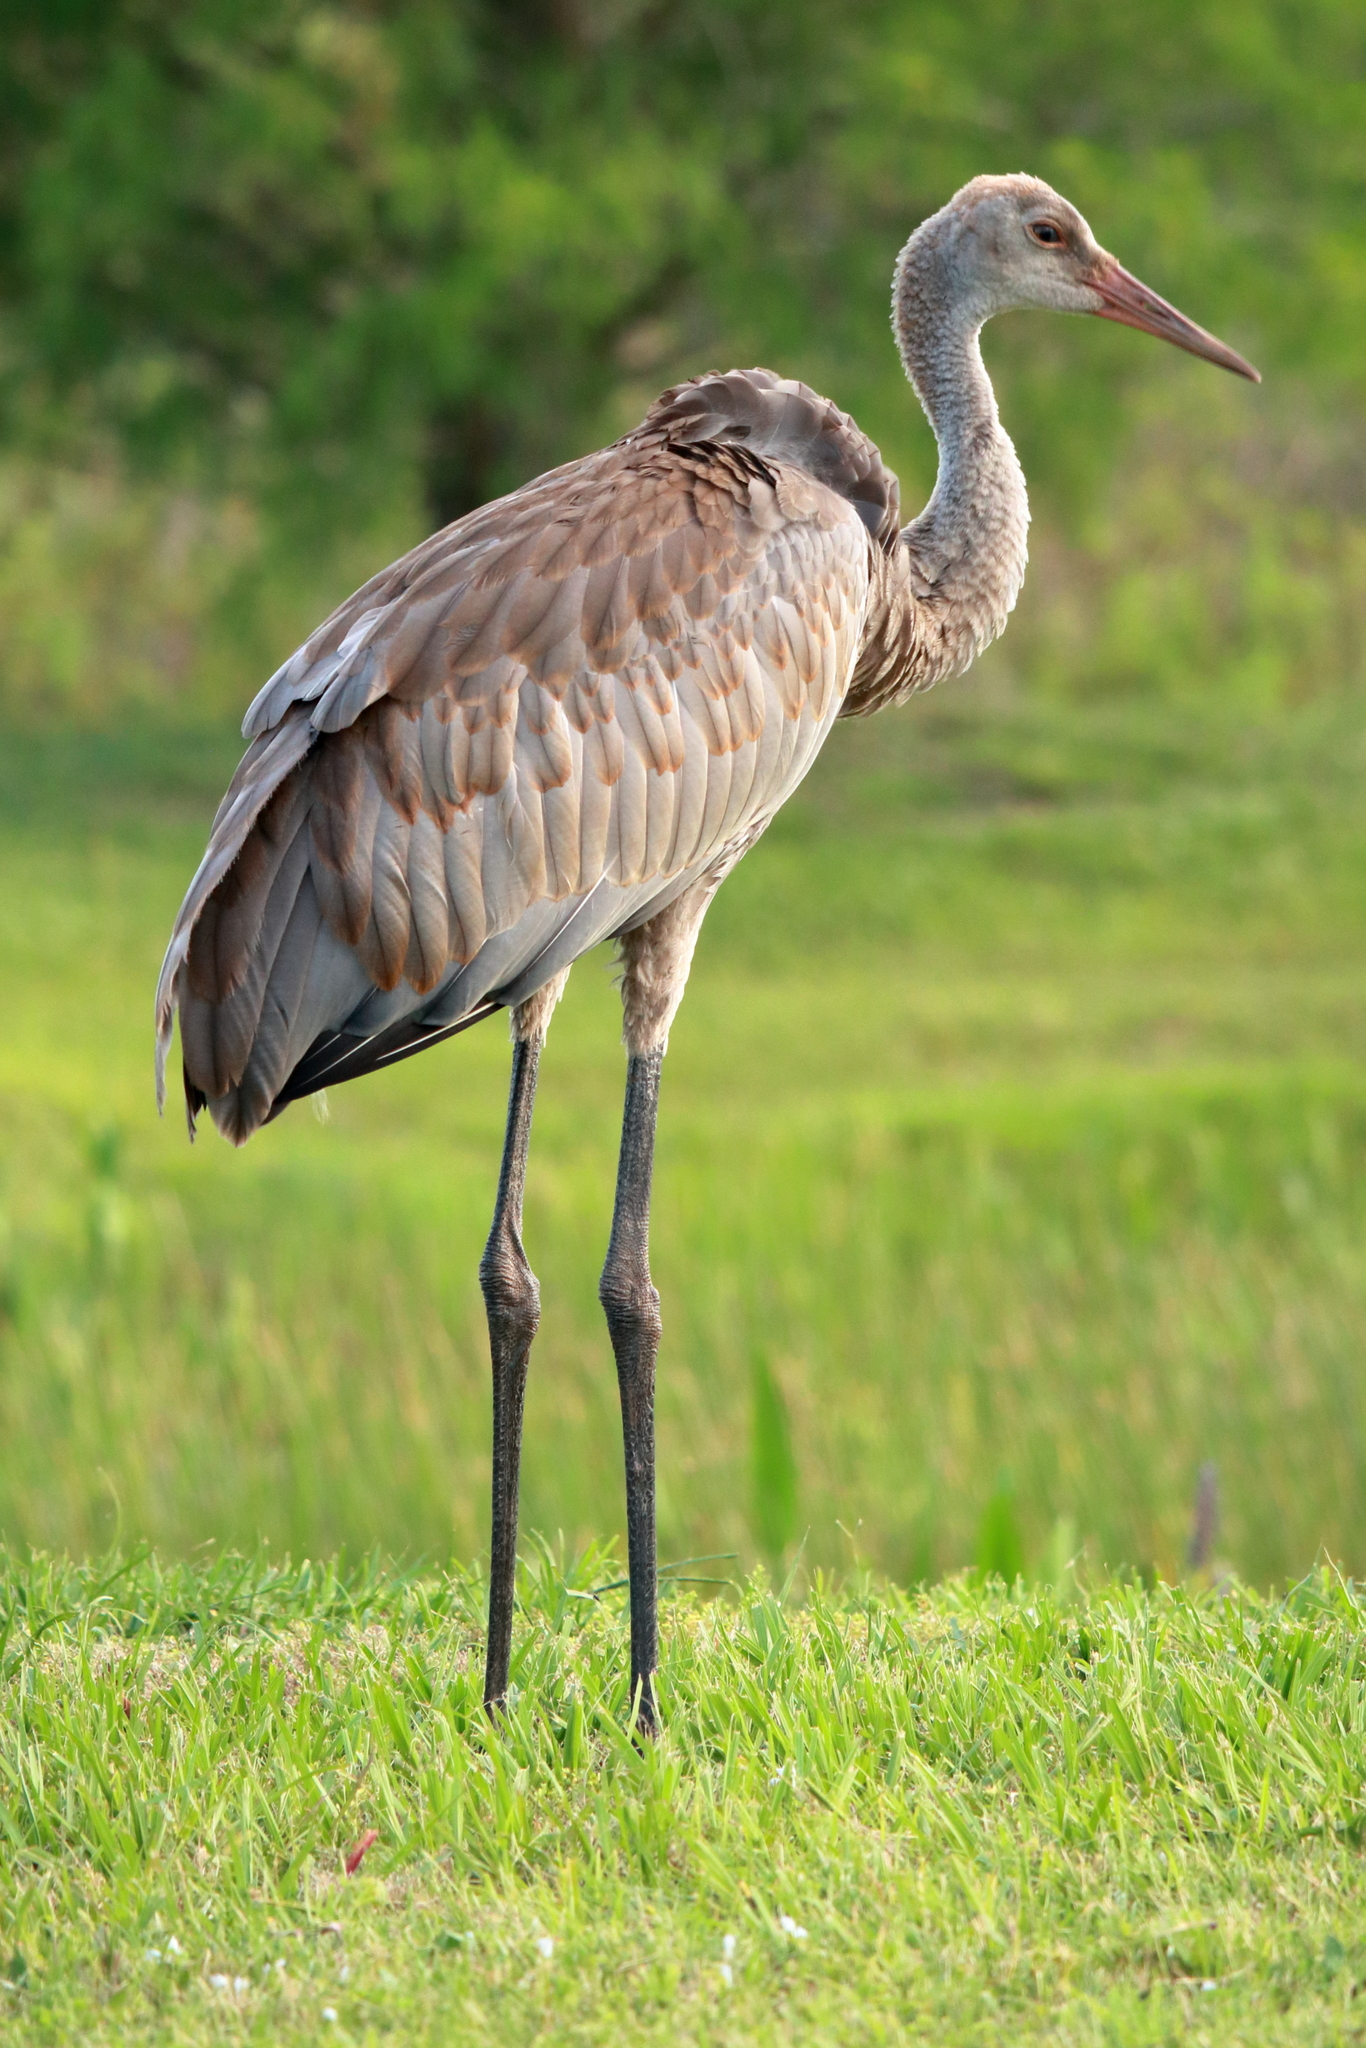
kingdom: Animalia
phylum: Chordata
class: Aves
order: Gruiformes
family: Gruidae
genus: Grus
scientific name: Grus canadensis
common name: Sandhill crane
